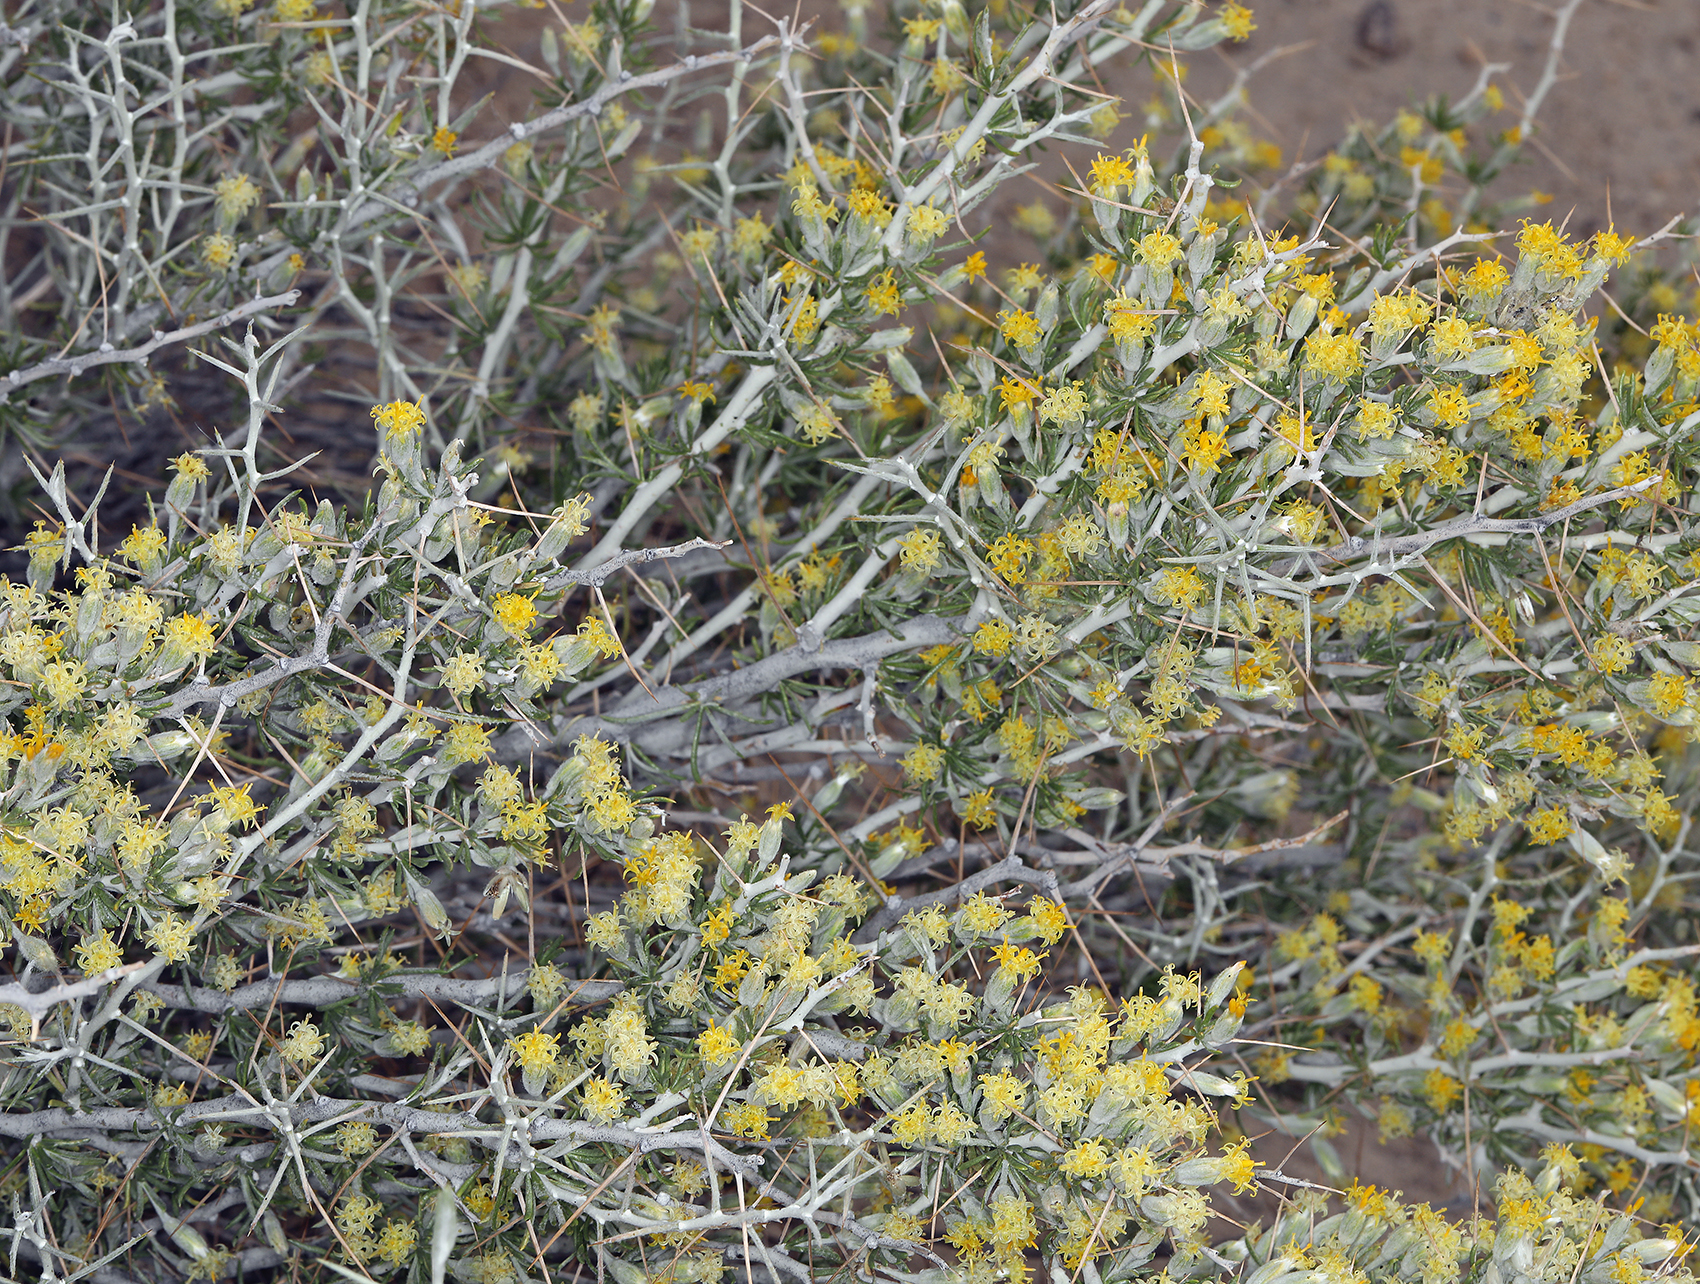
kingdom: Plantae
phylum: Tracheophyta
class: Magnoliopsida
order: Asterales
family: Asteraceae
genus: Tetradymia
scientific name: Tetradymia axillaris
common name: Long-spine horsebrush
